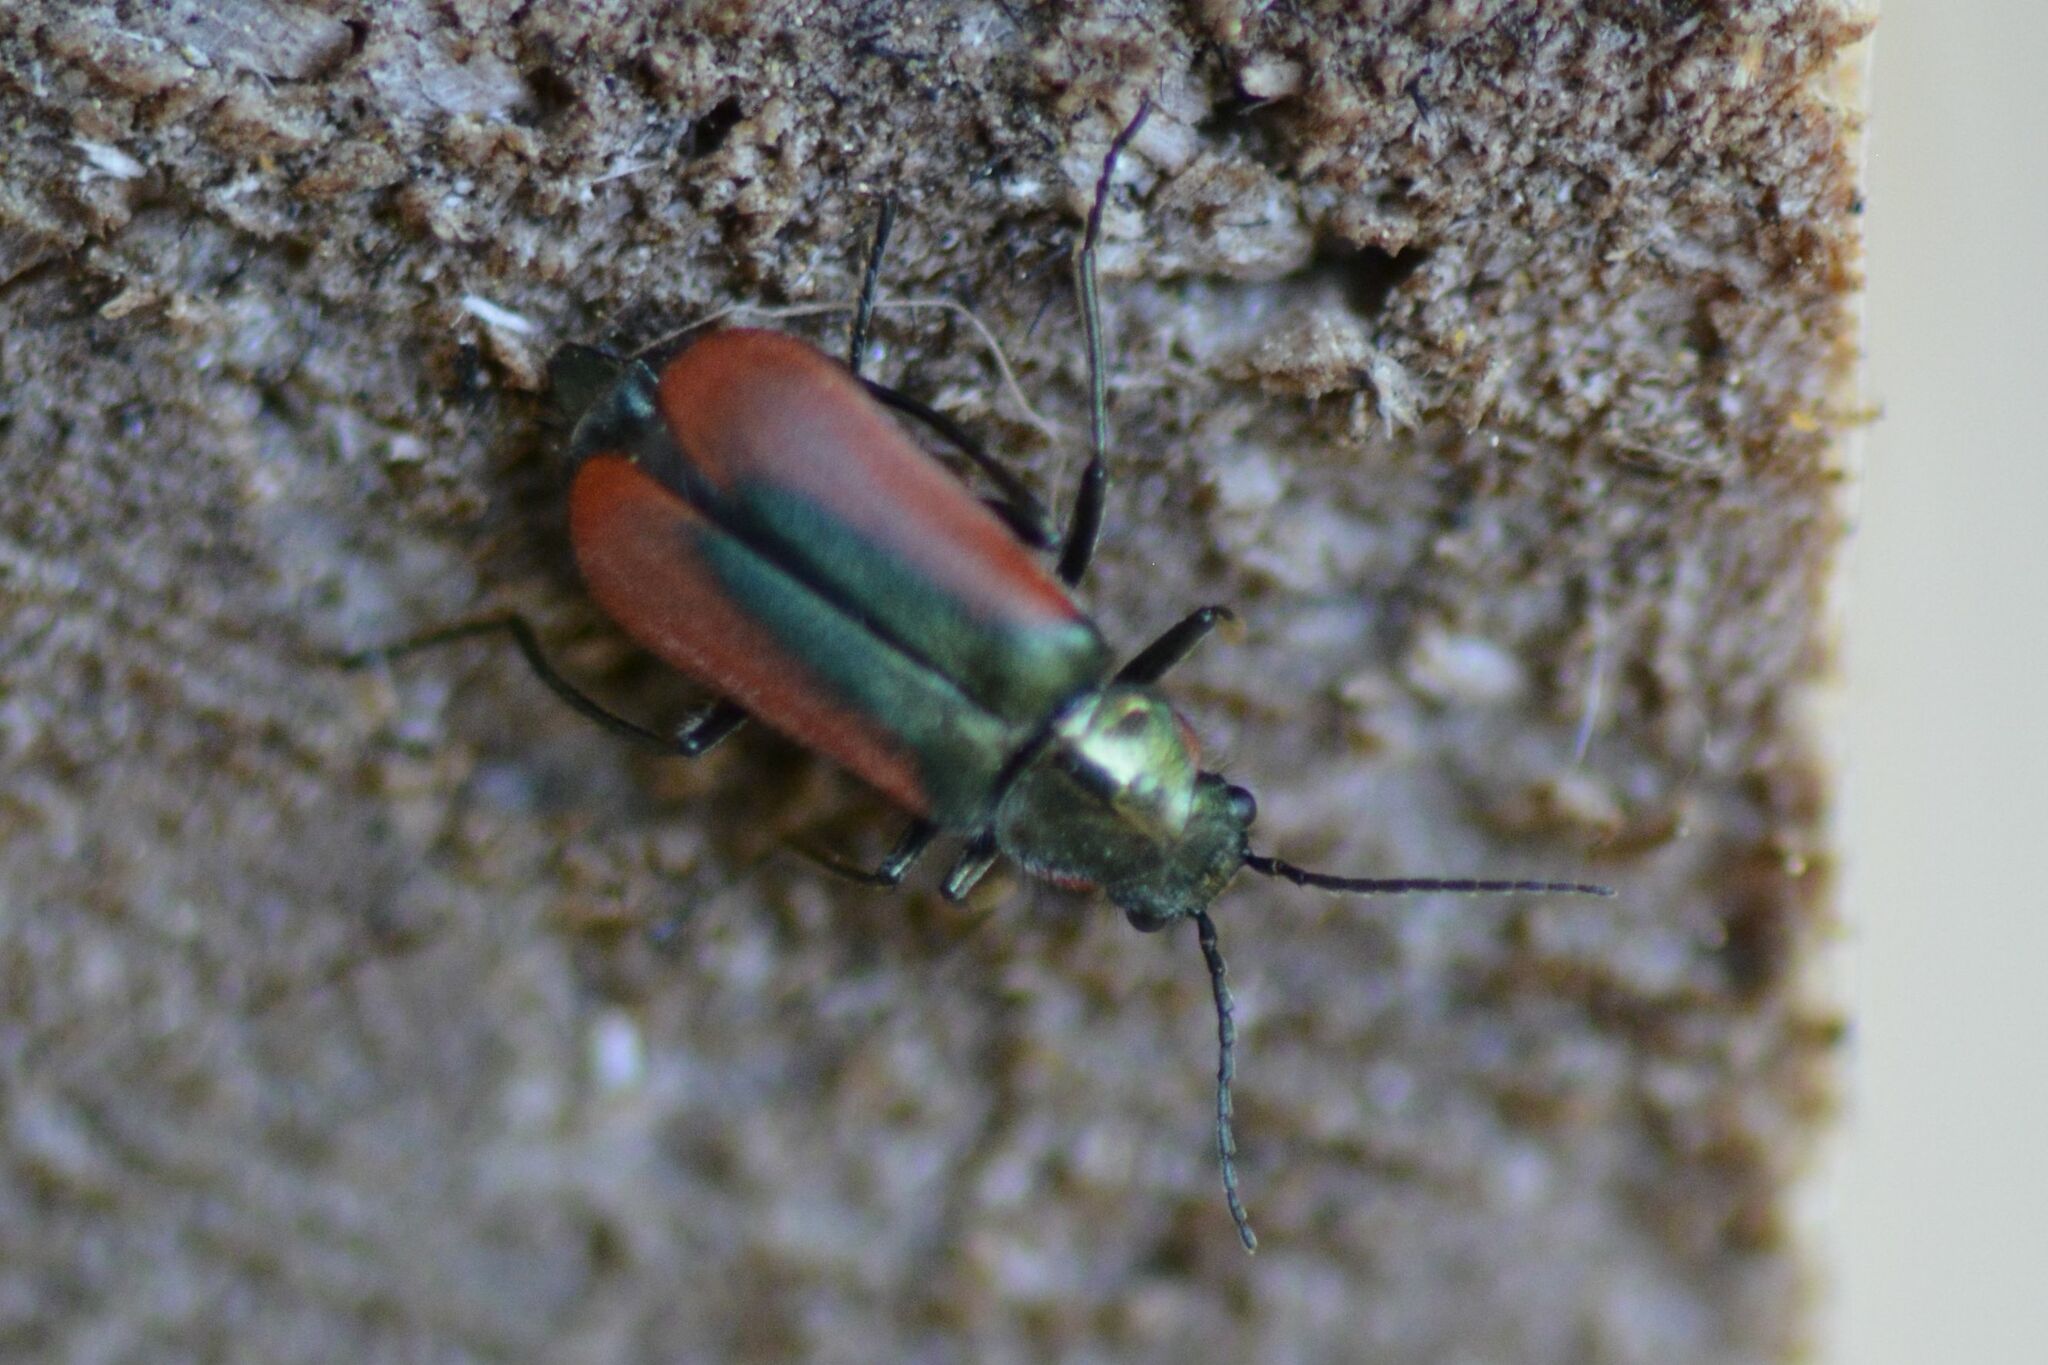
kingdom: Animalia
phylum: Arthropoda
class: Insecta
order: Coleoptera
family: Melyridae
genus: Malachius
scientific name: Malachius aeneus
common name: Scarlet malachite beetle
